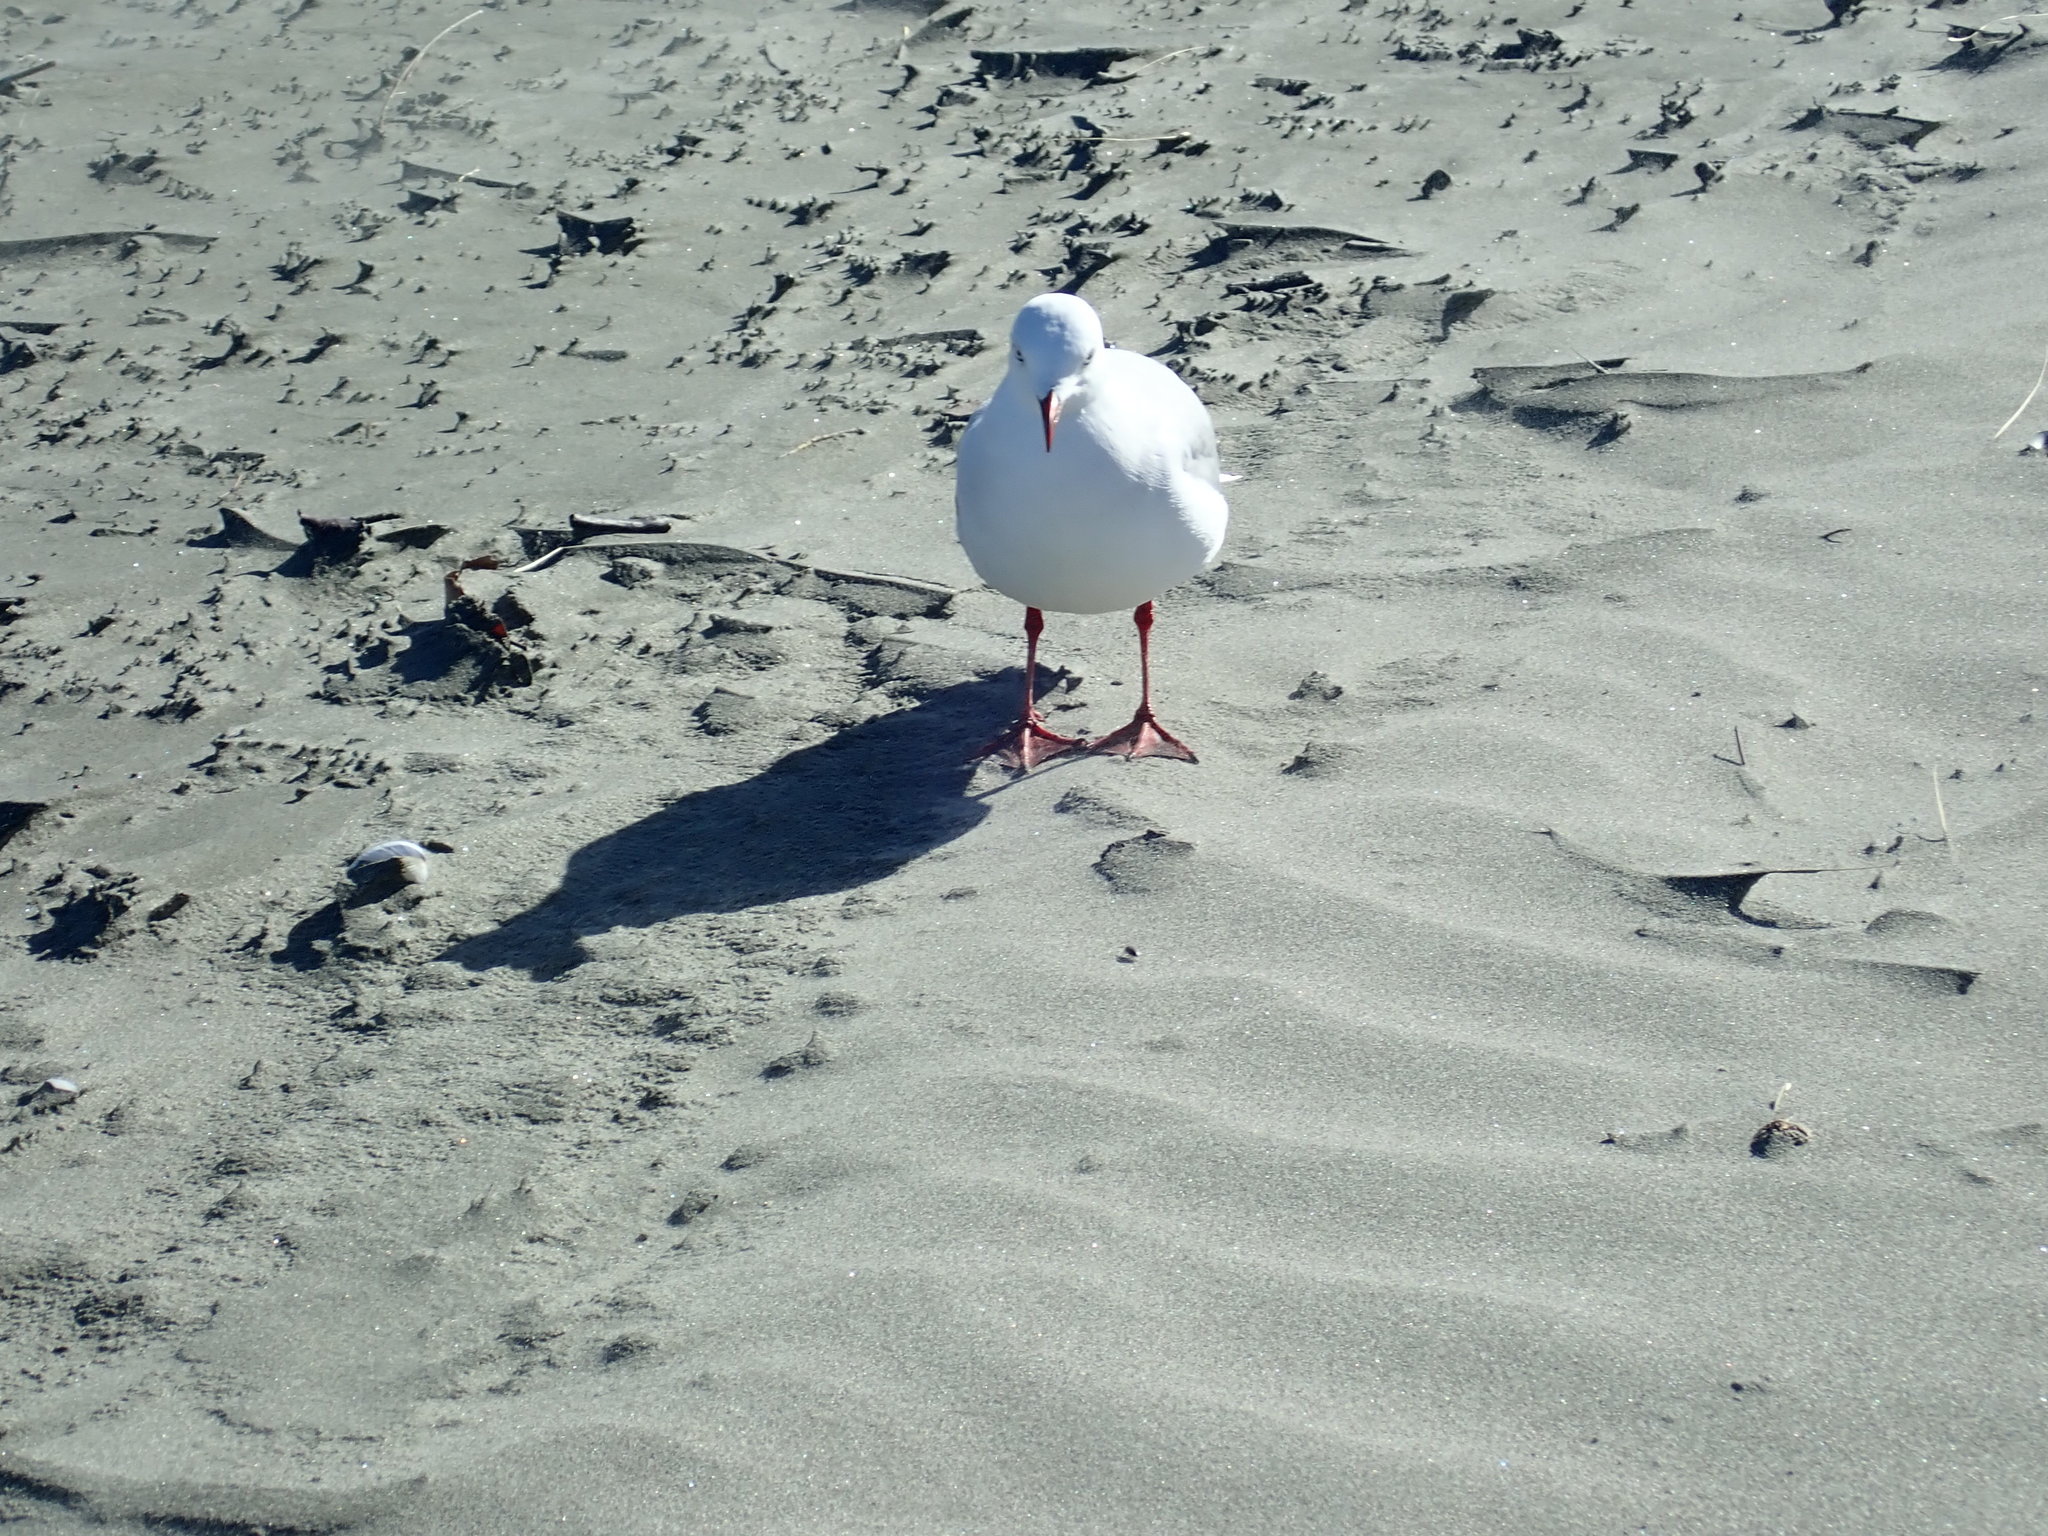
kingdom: Animalia
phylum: Chordata
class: Aves
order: Charadriiformes
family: Laridae
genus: Chroicocephalus
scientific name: Chroicocephalus novaehollandiae
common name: Silver gull
